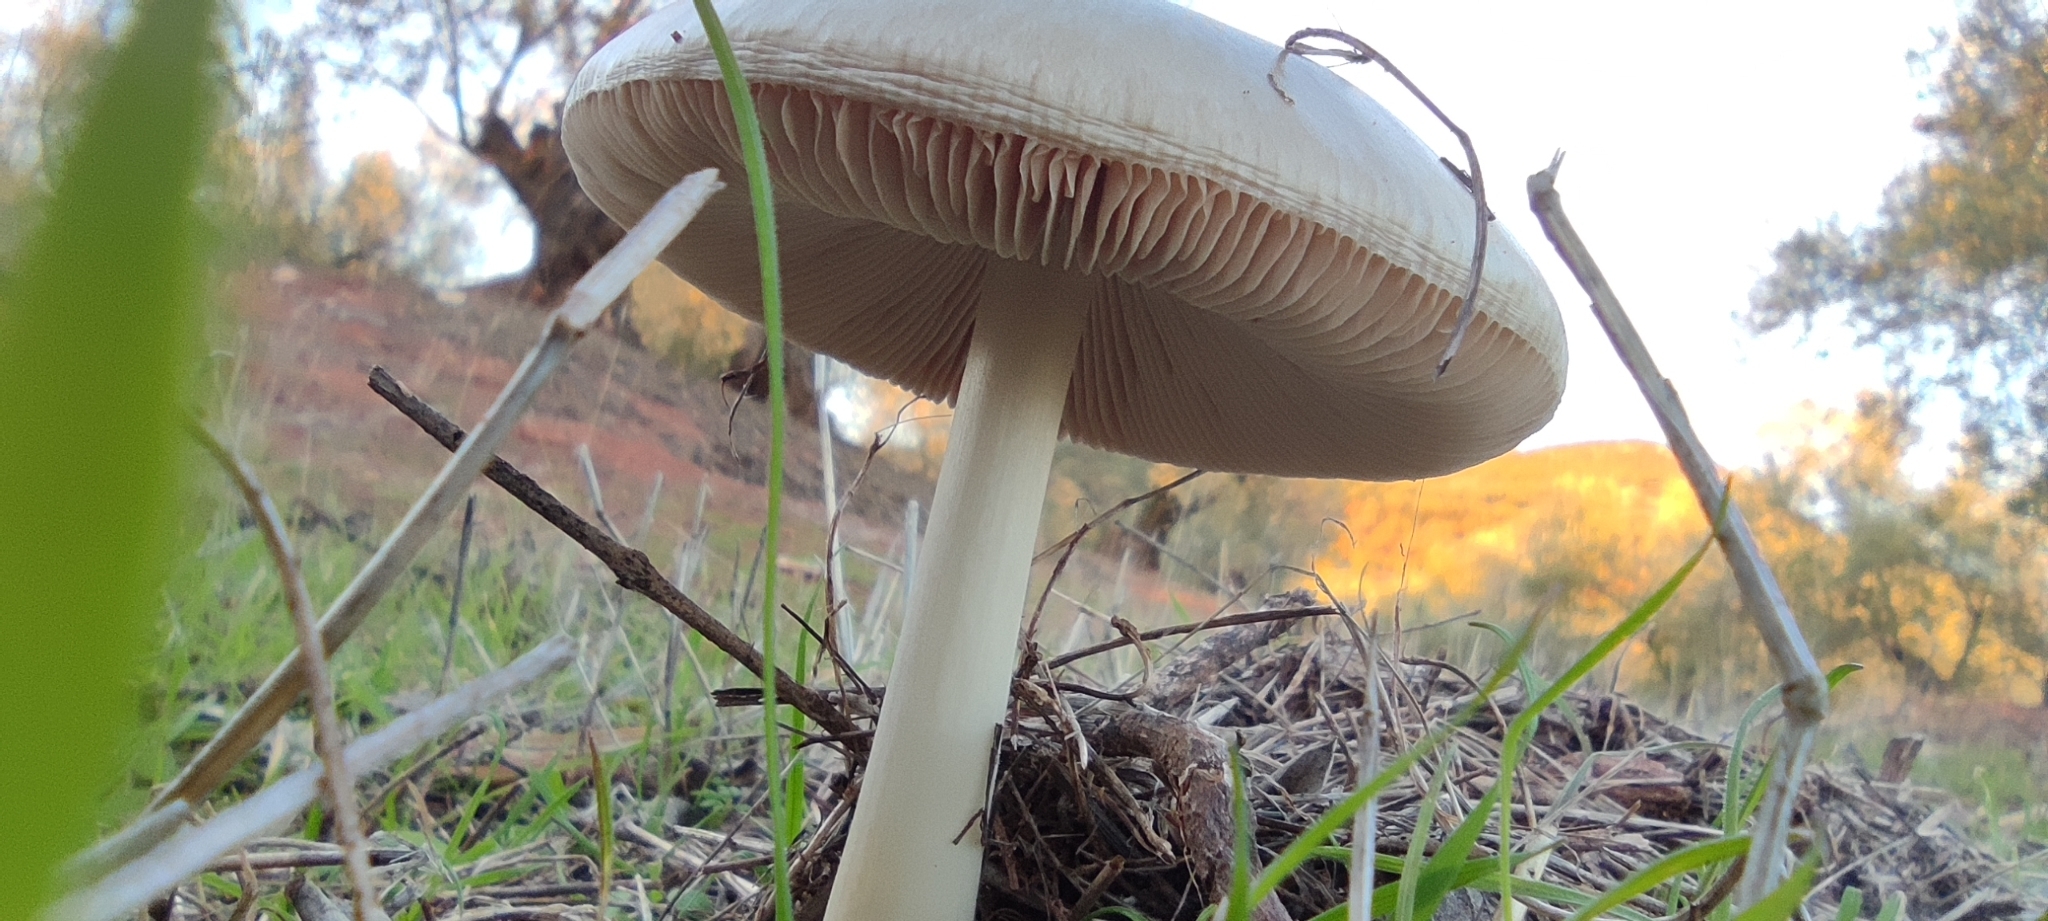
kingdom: Fungi
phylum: Basidiomycota
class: Agaricomycetes
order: Agaricales
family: Pluteaceae
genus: Volvopluteus
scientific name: Volvopluteus gloiocephalus
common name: Stubble rosegill
